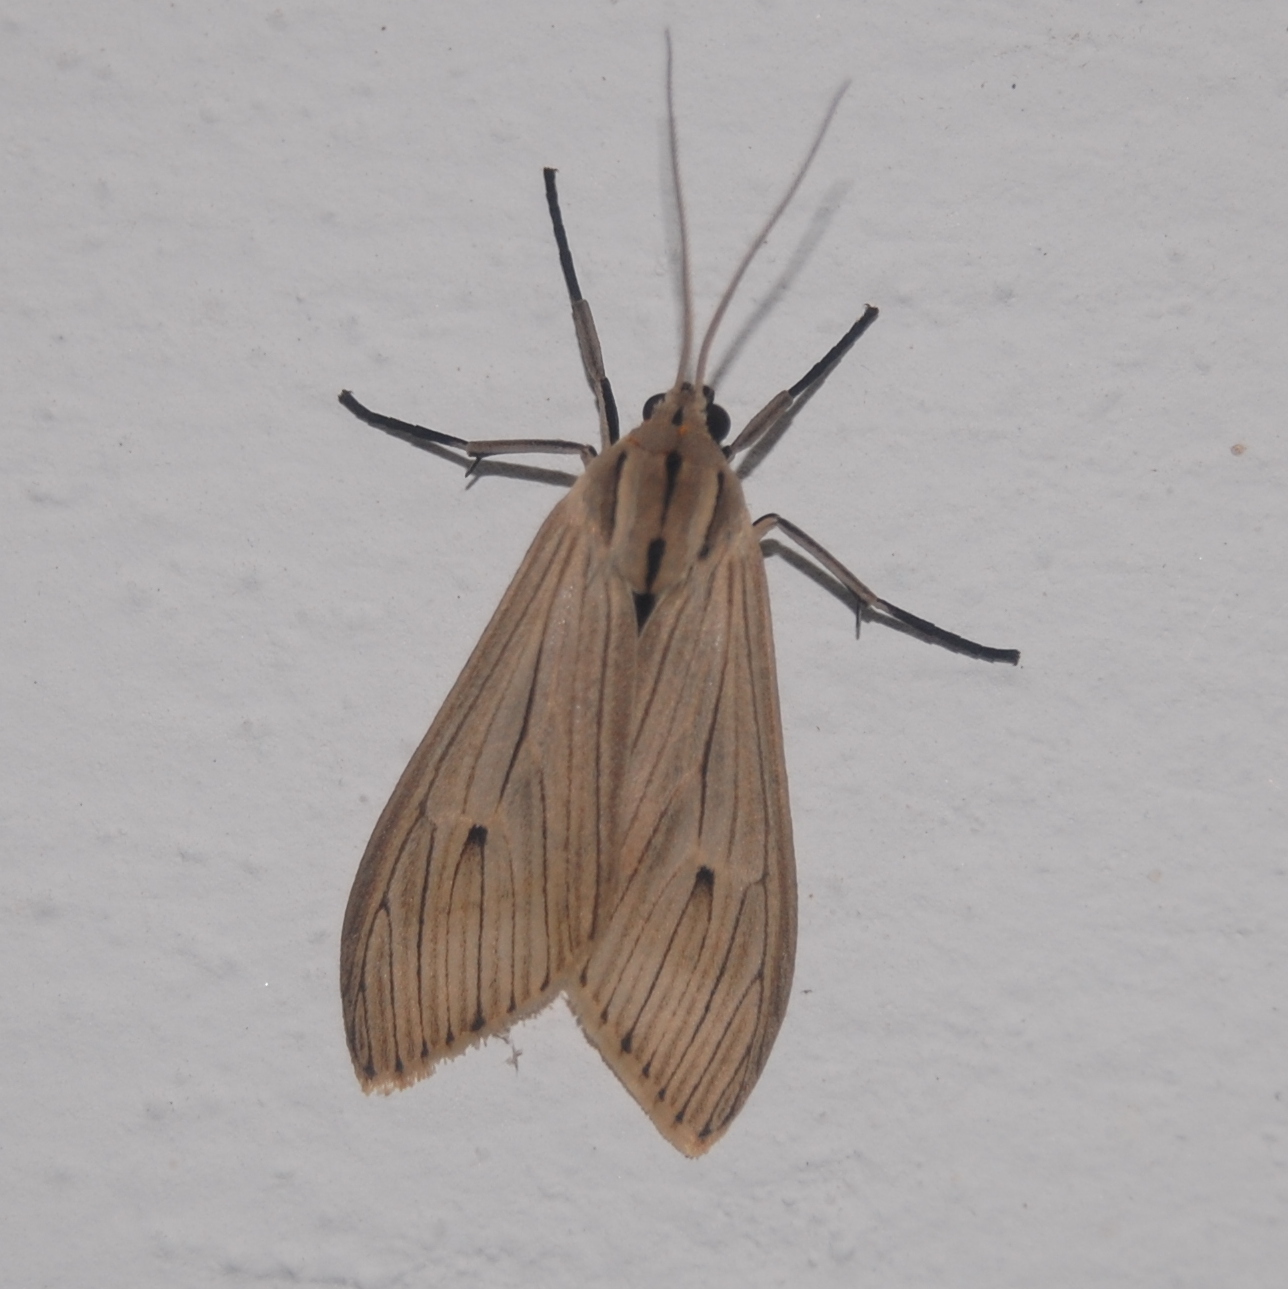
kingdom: Animalia
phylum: Arthropoda
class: Insecta
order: Lepidoptera
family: Erebidae
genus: Arctagyrta
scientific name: Arctagyrta Agaraea semivitrea
